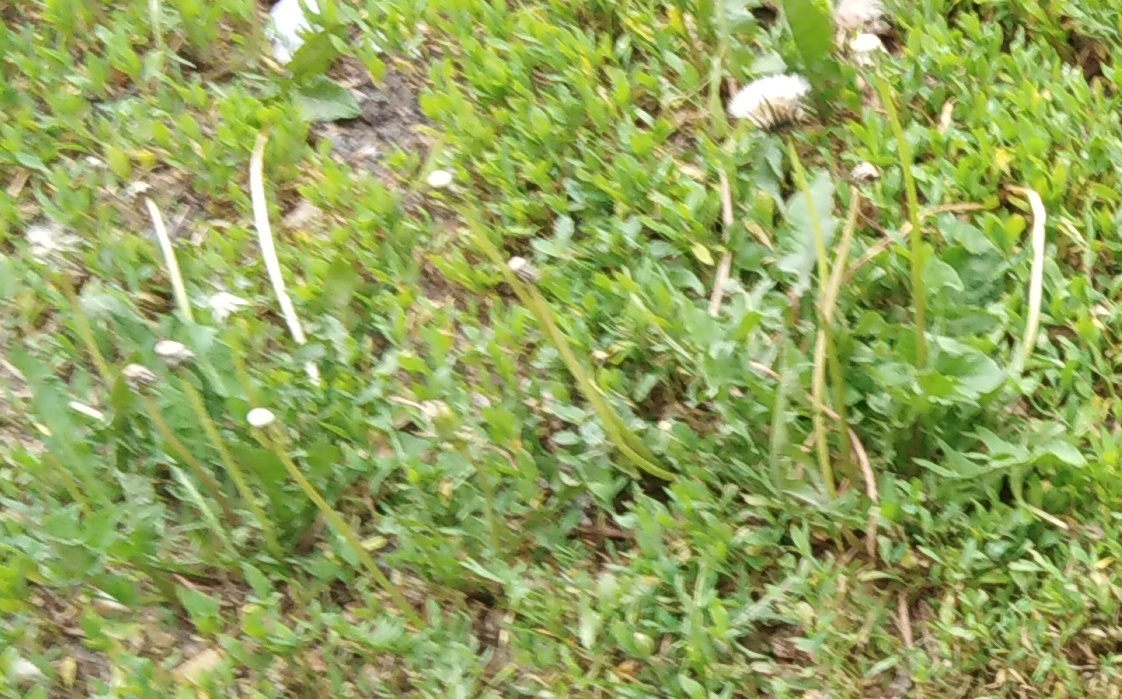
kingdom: Plantae
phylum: Tracheophyta
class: Magnoliopsida
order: Asterales
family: Asteraceae
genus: Taraxacum
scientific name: Taraxacum officinale
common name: Common dandelion
